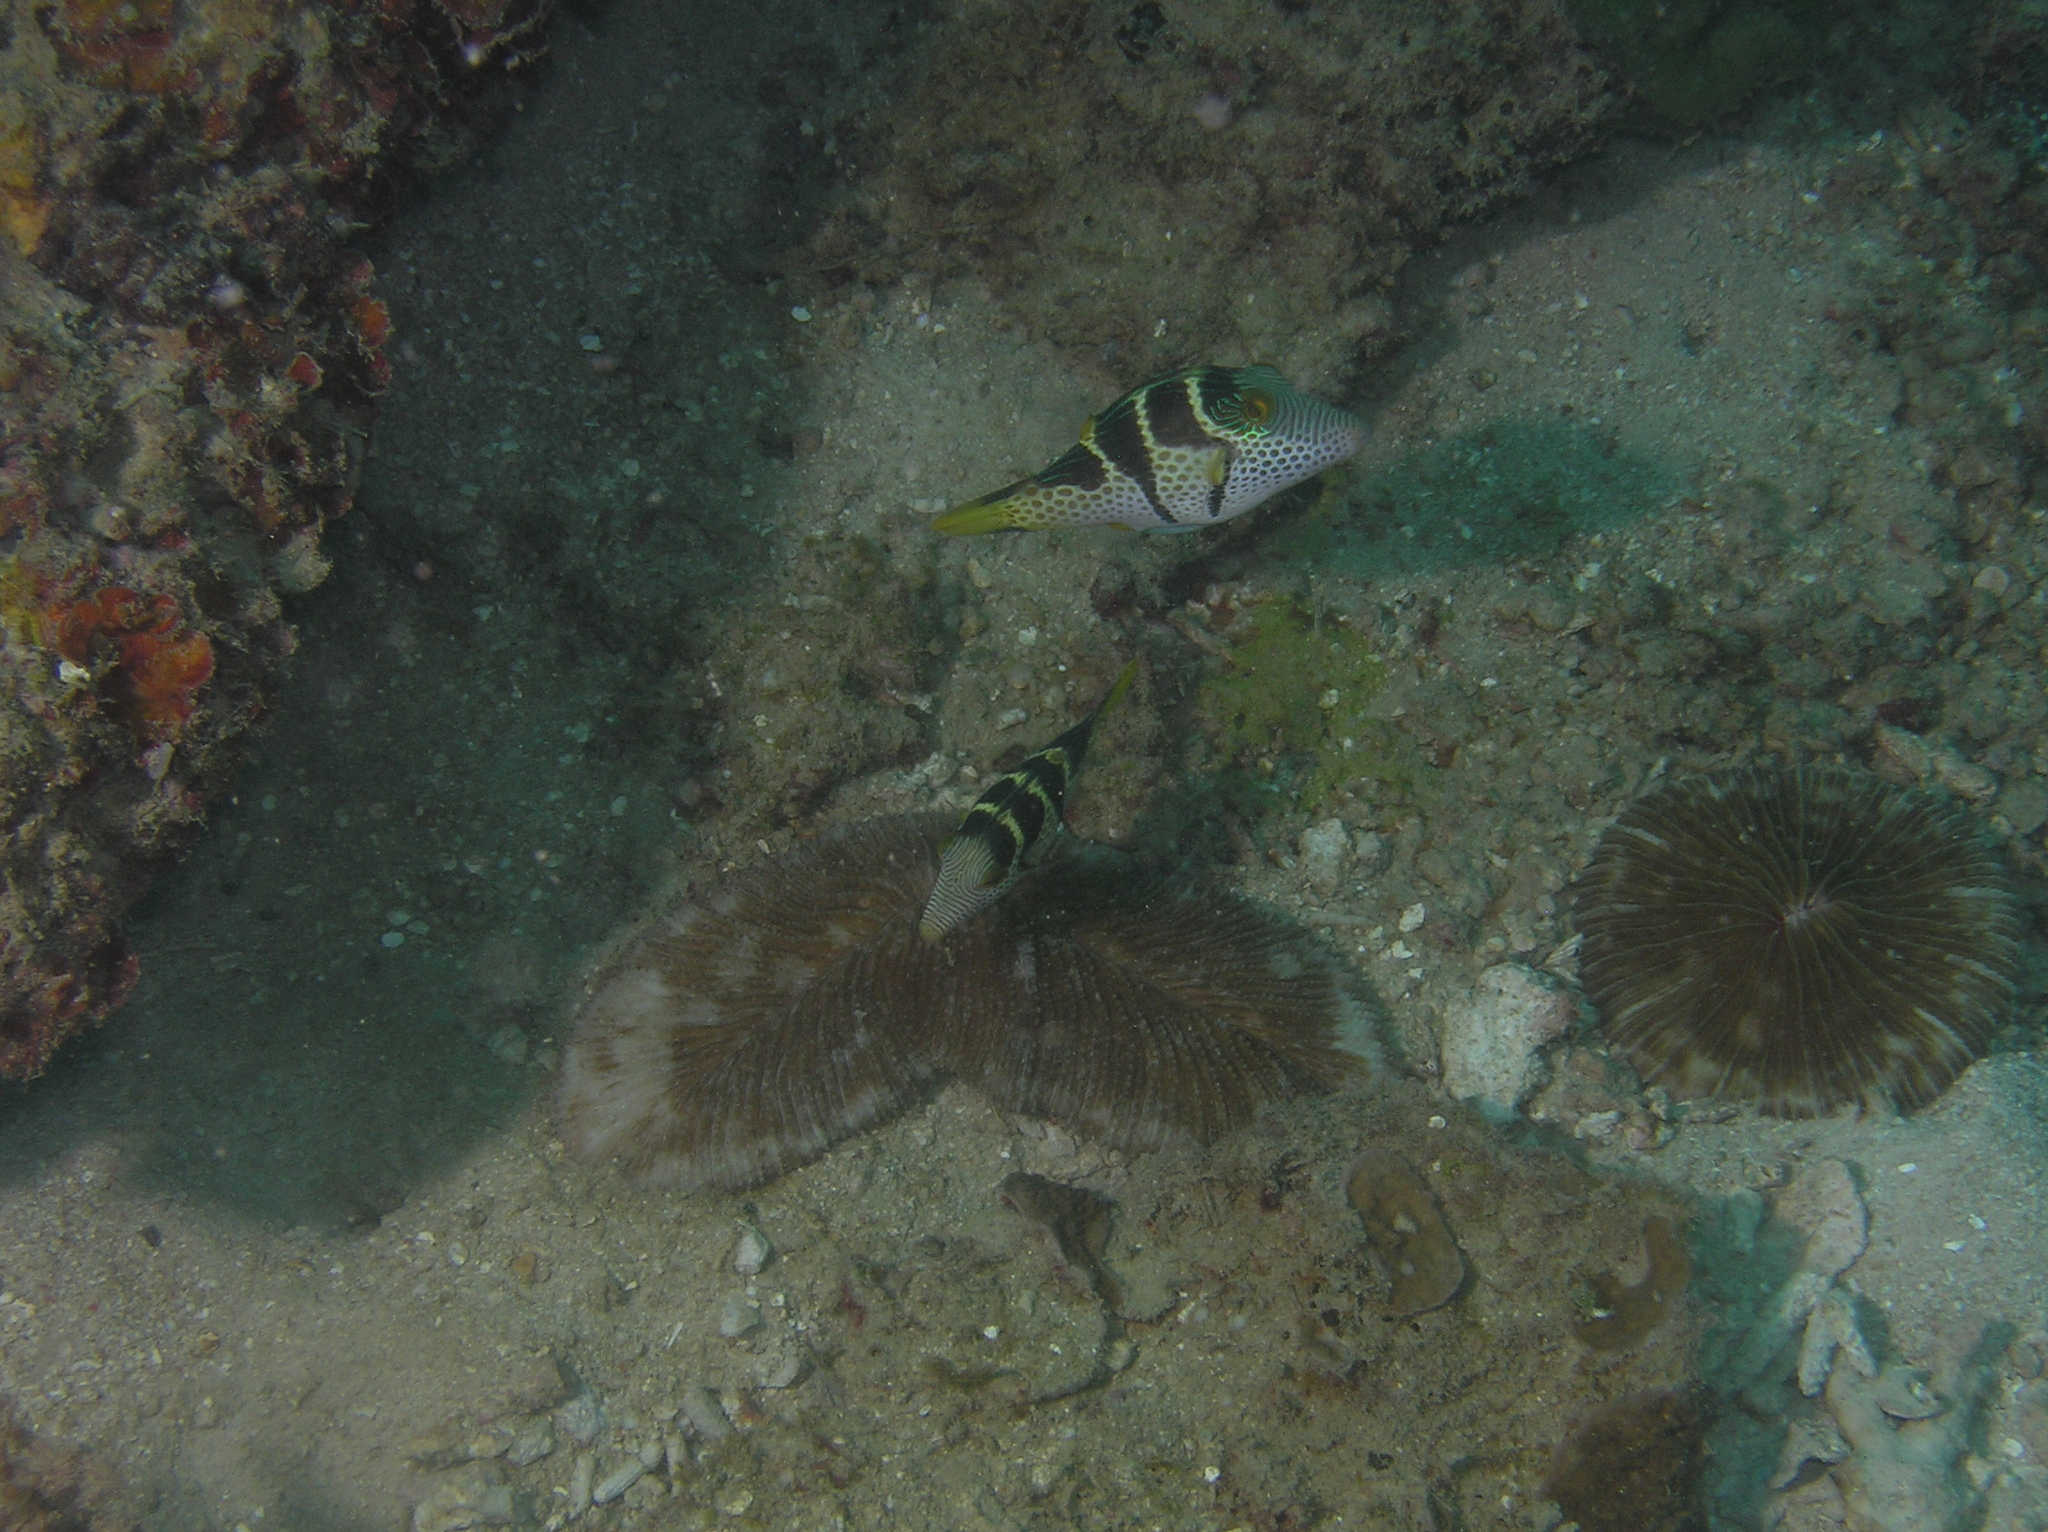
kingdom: Animalia
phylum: Chordata
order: Tetraodontiformes
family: Tetraodontidae
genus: Canthigaster
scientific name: Canthigaster valentini
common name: Banded toby
